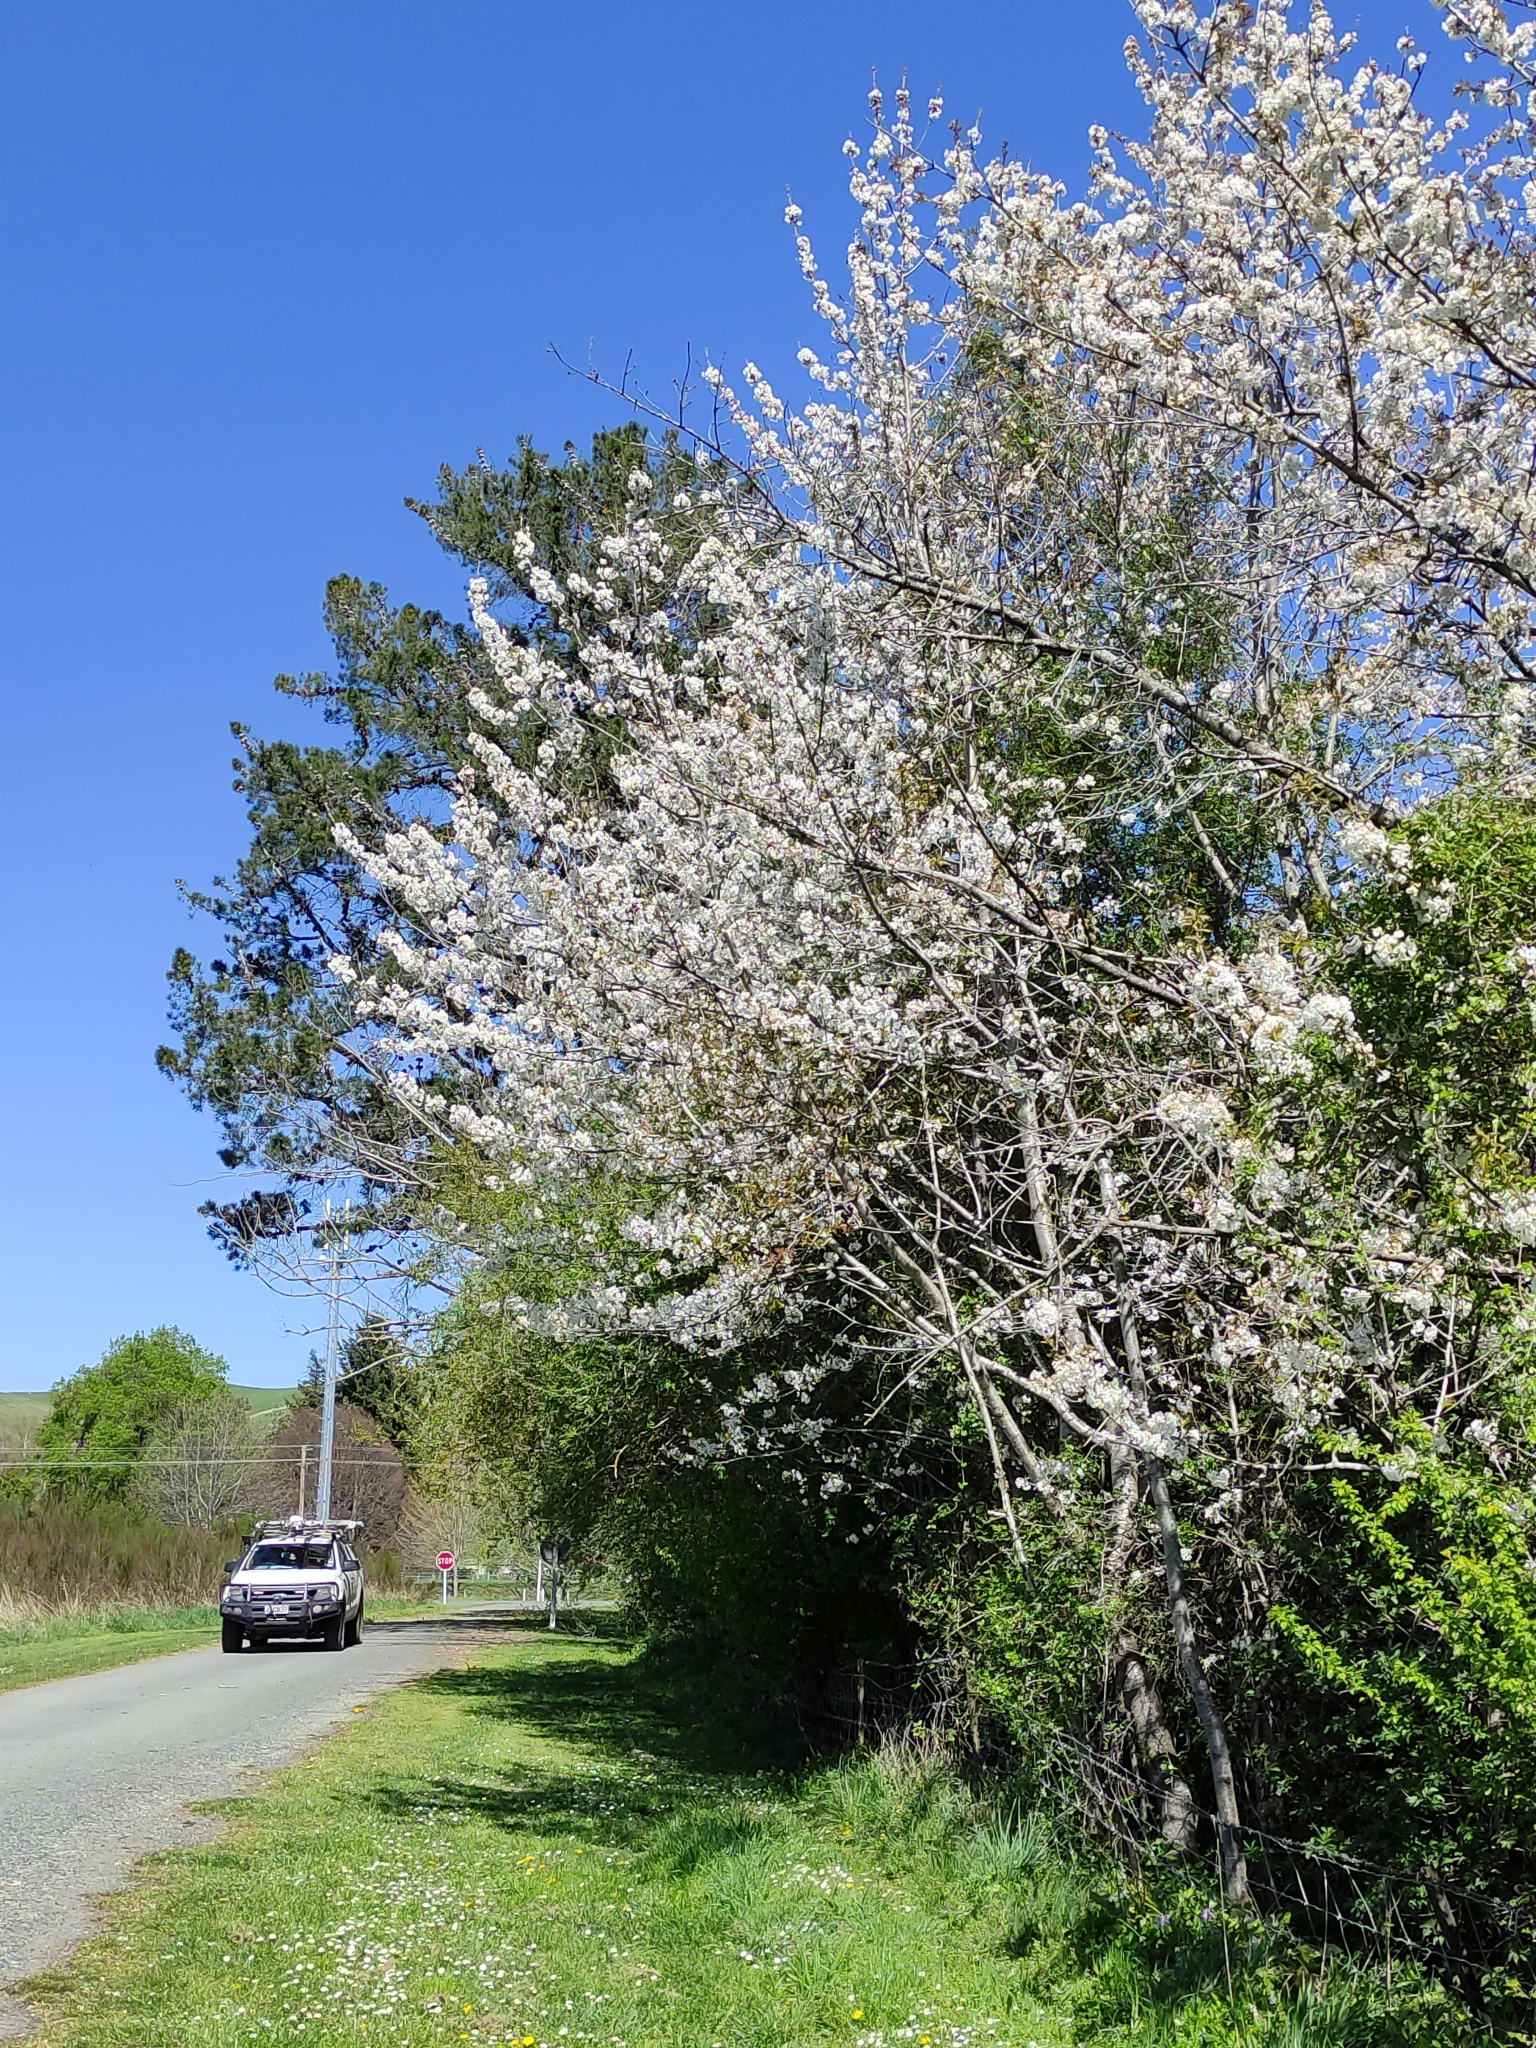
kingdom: Plantae
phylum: Tracheophyta
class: Magnoliopsida
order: Rosales
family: Rosaceae
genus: Prunus
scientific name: Prunus serrulata
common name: Japanese cherry
